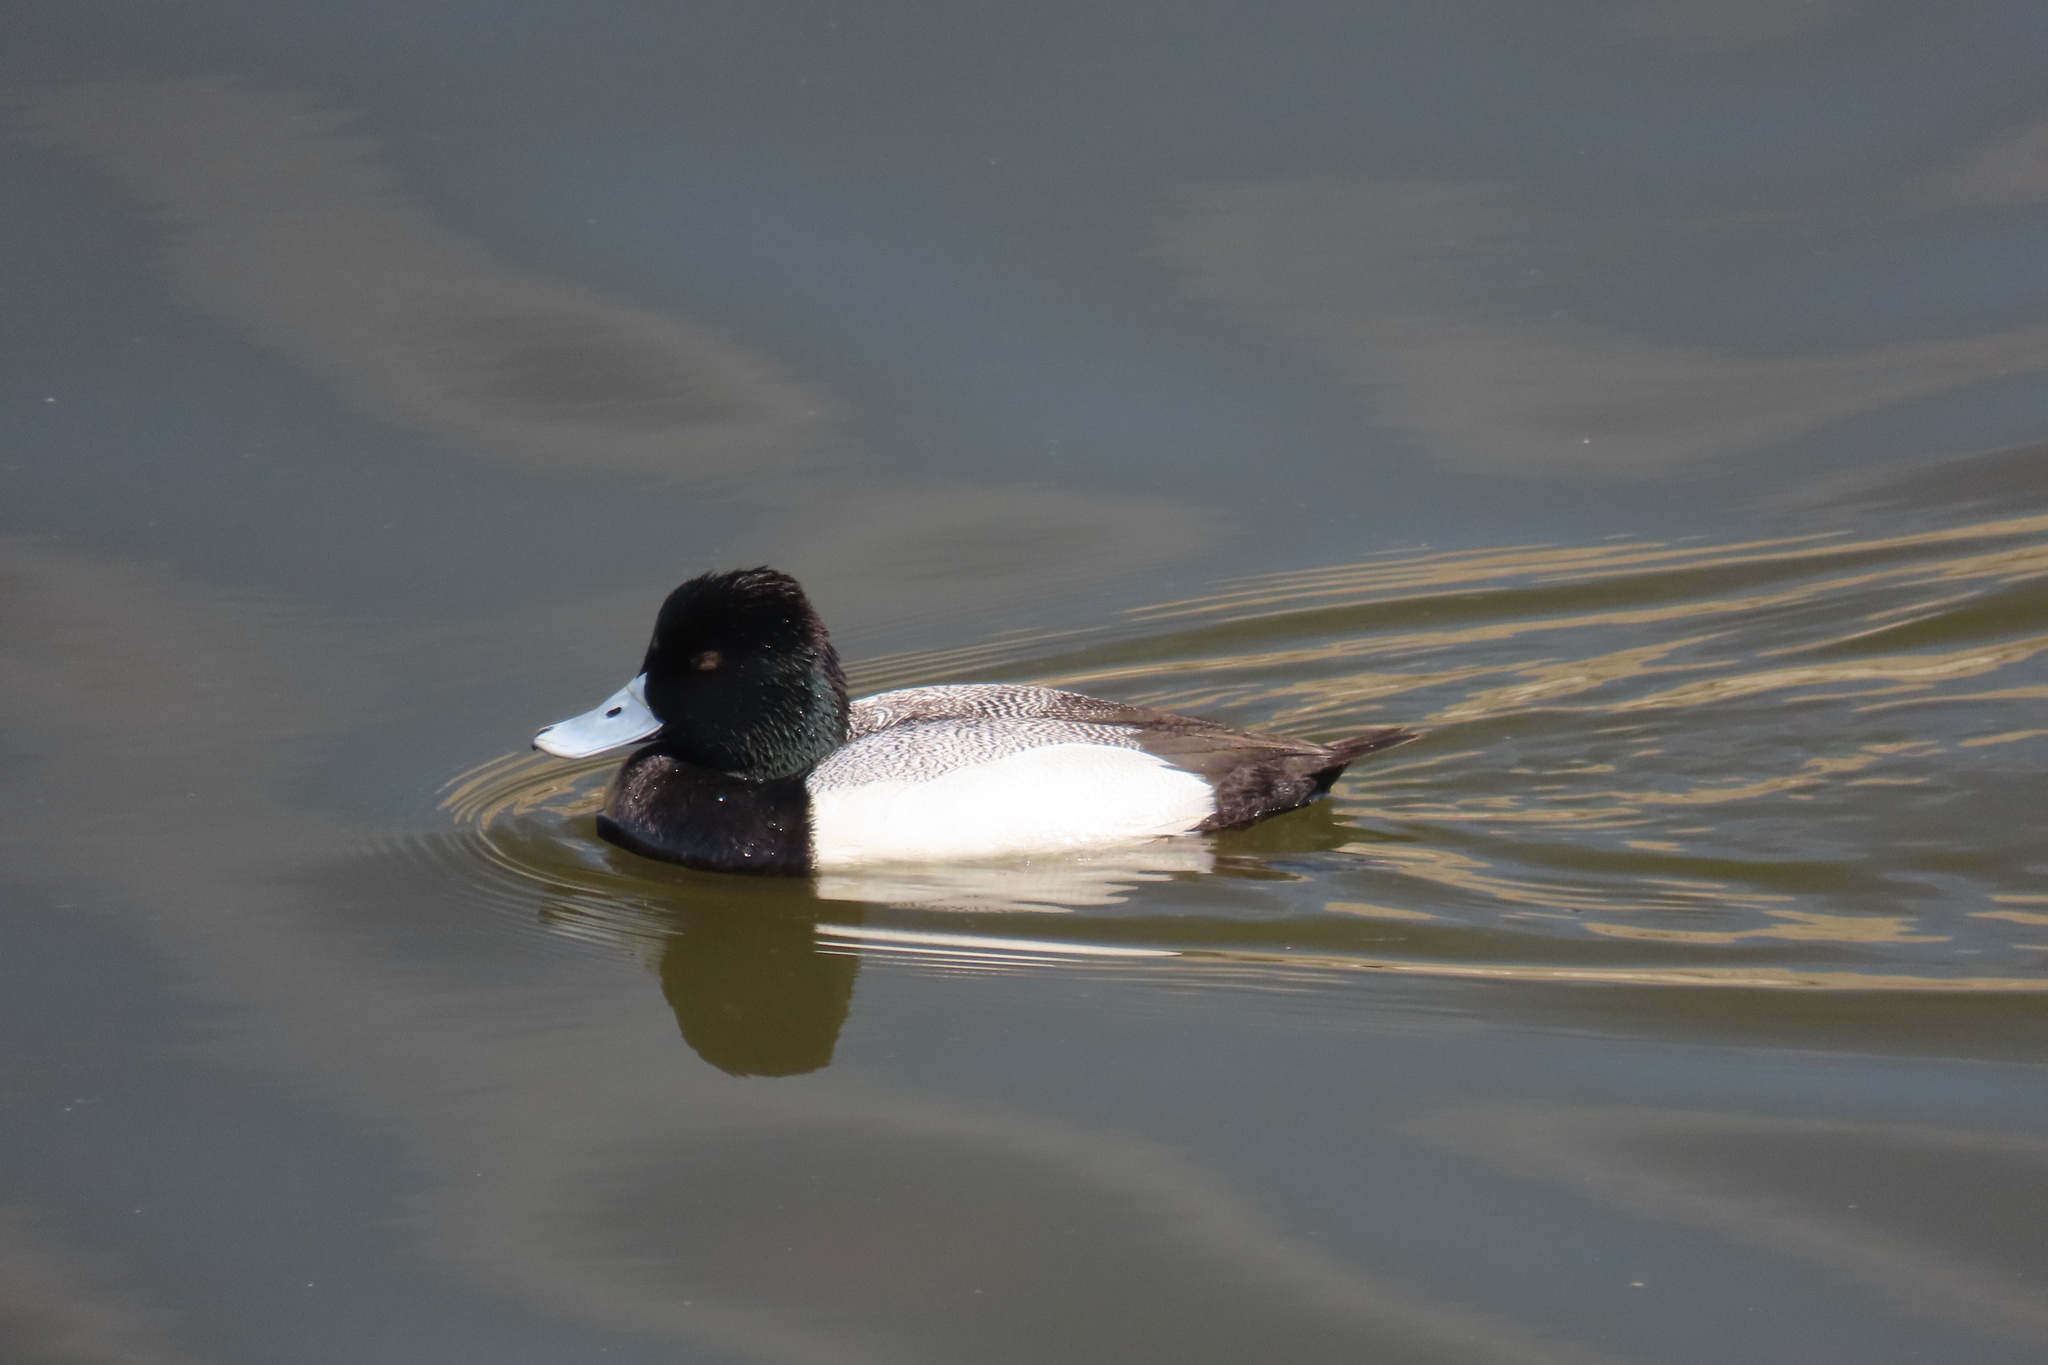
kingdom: Animalia
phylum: Chordata
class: Aves
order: Anseriformes
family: Anatidae
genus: Aythya
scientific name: Aythya affinis
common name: Lesser scaup
